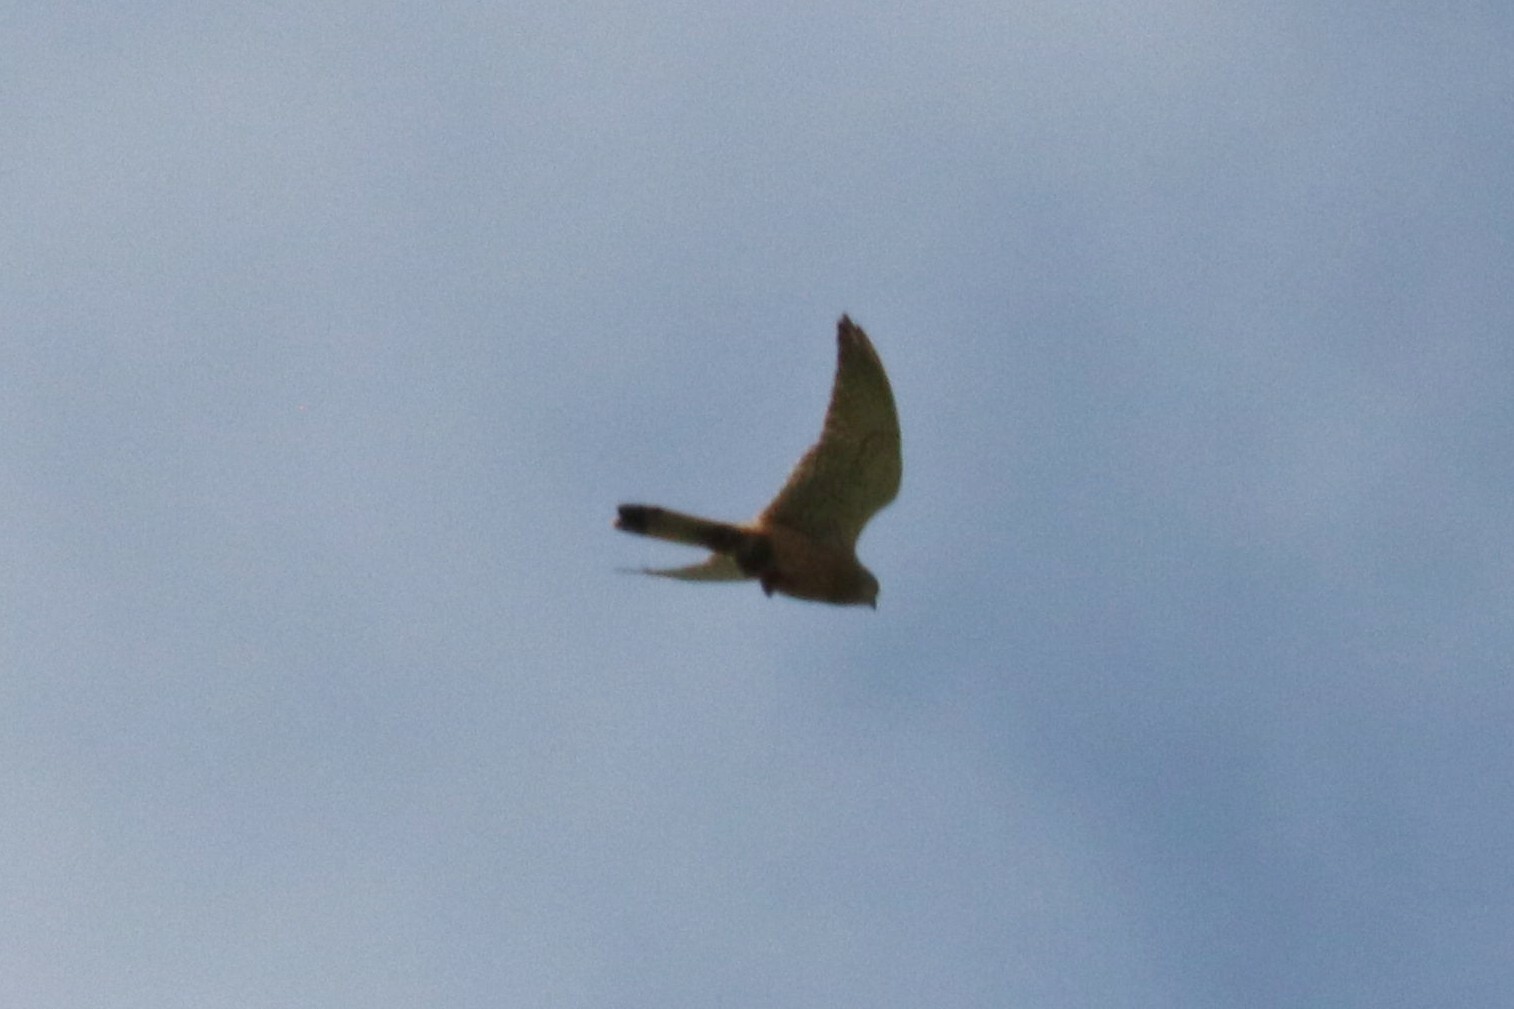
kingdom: Animalia
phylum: Chordata
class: Aves
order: Falconiformes
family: Falconidae
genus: Falco
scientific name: Falco tinnunculus
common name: Common kestrel
